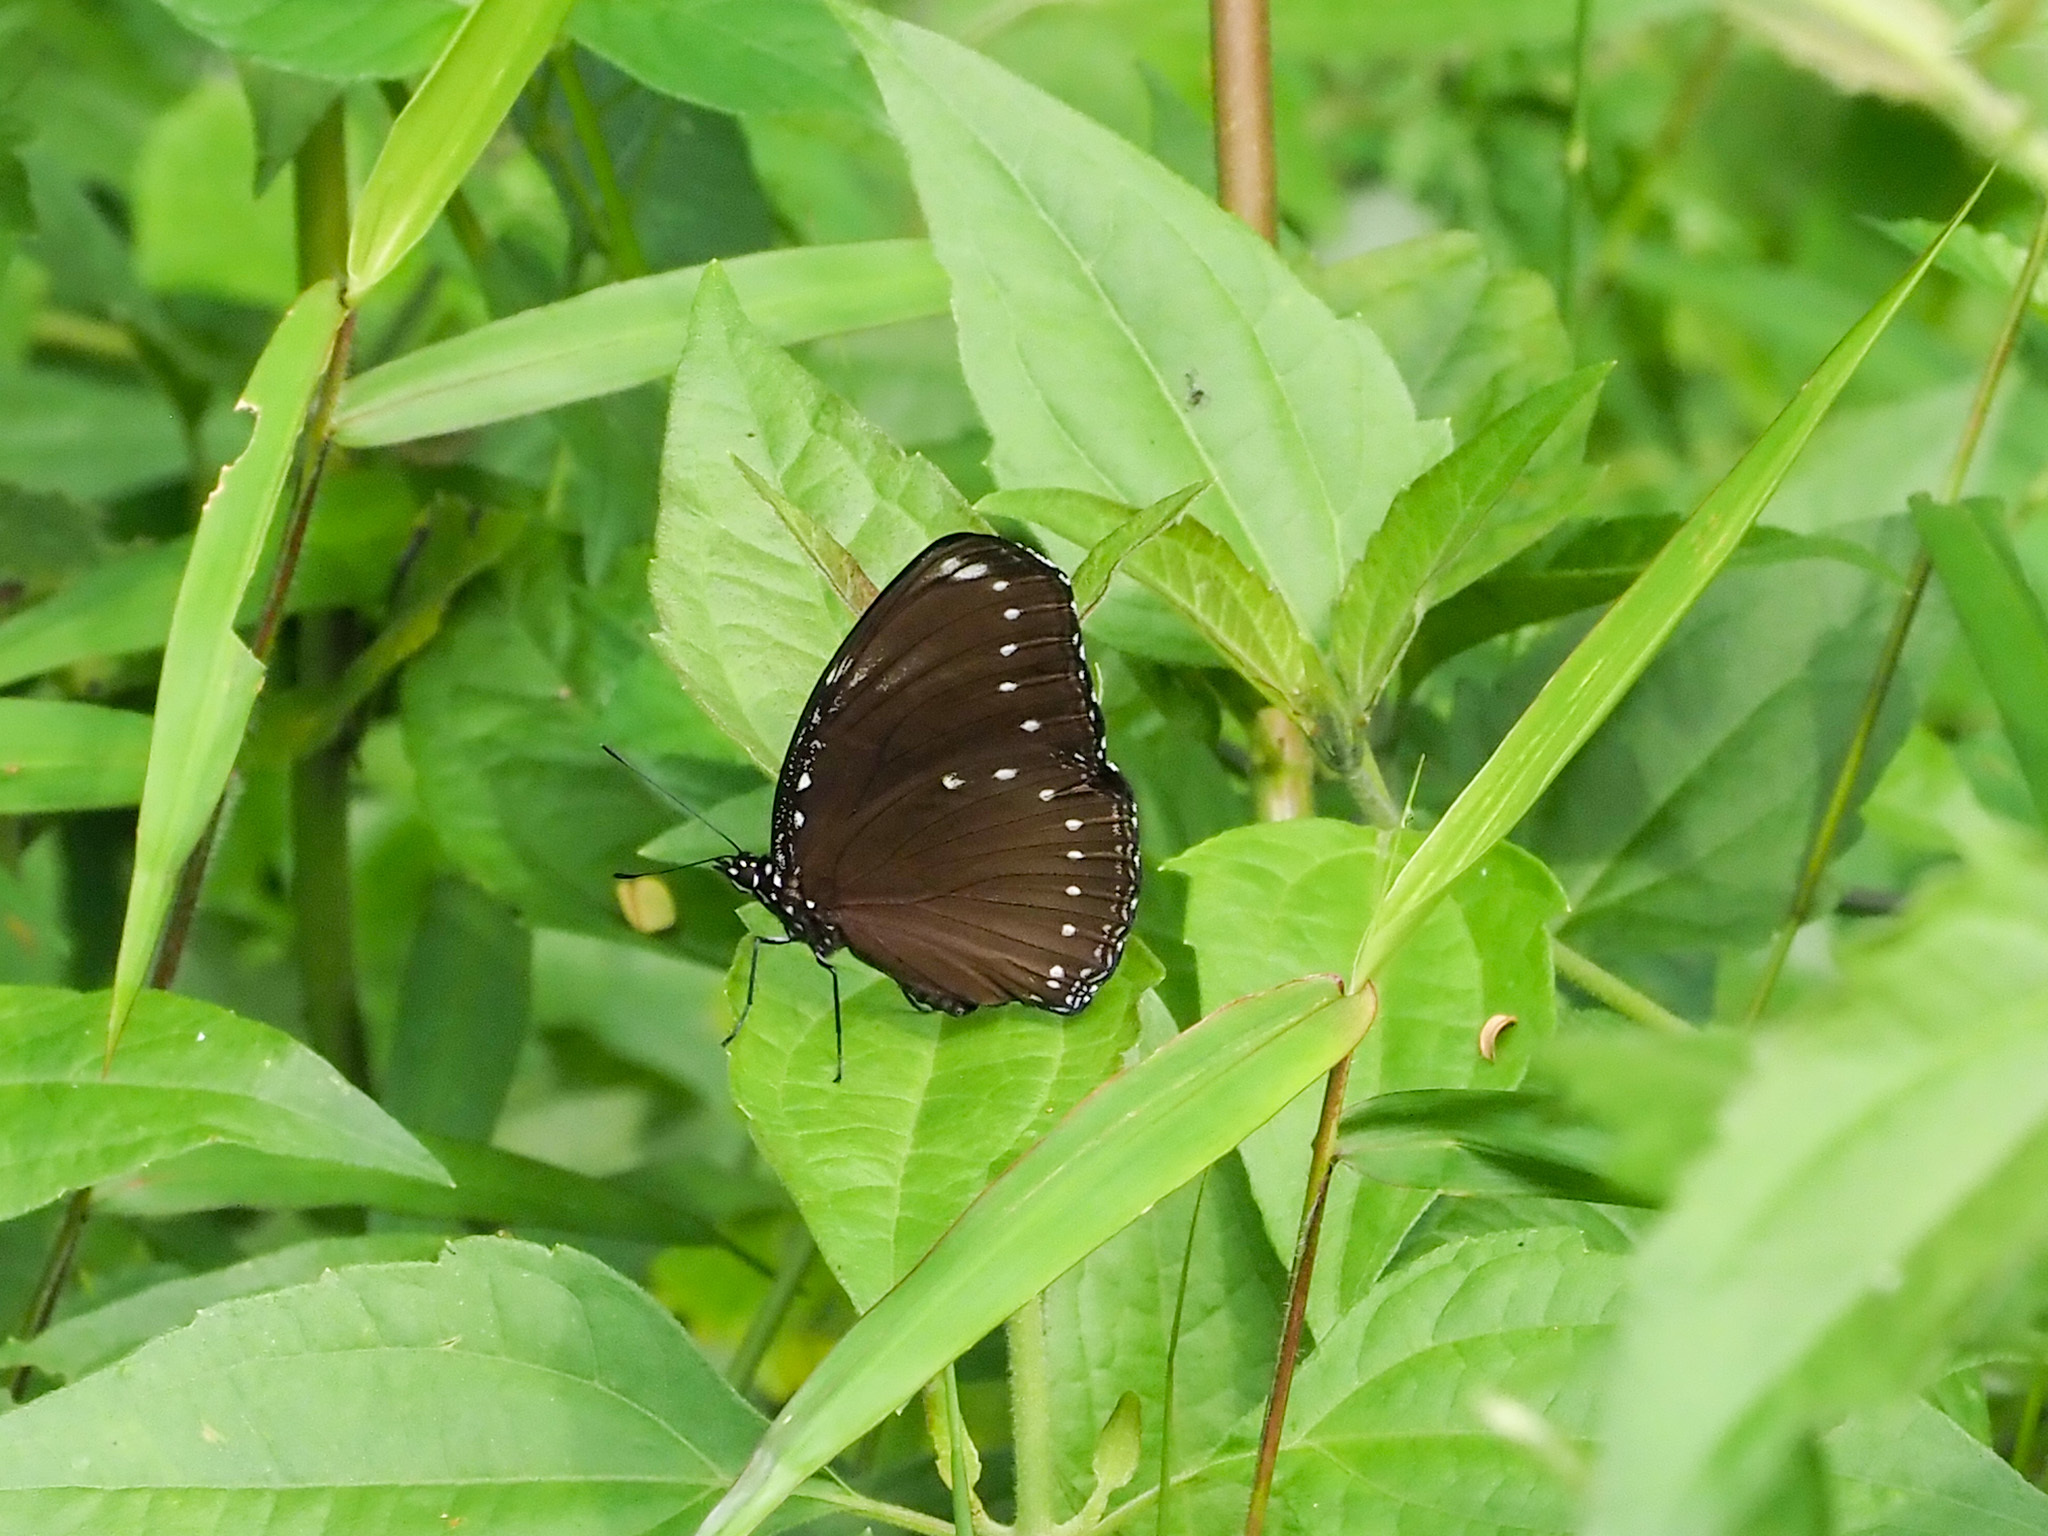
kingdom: Animalia
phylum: Arthropoda
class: Insecta
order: Lepidoptera
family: Nymphalidae
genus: Hypolimnas
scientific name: Hypolimnas anomala
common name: Malayan eggfly
